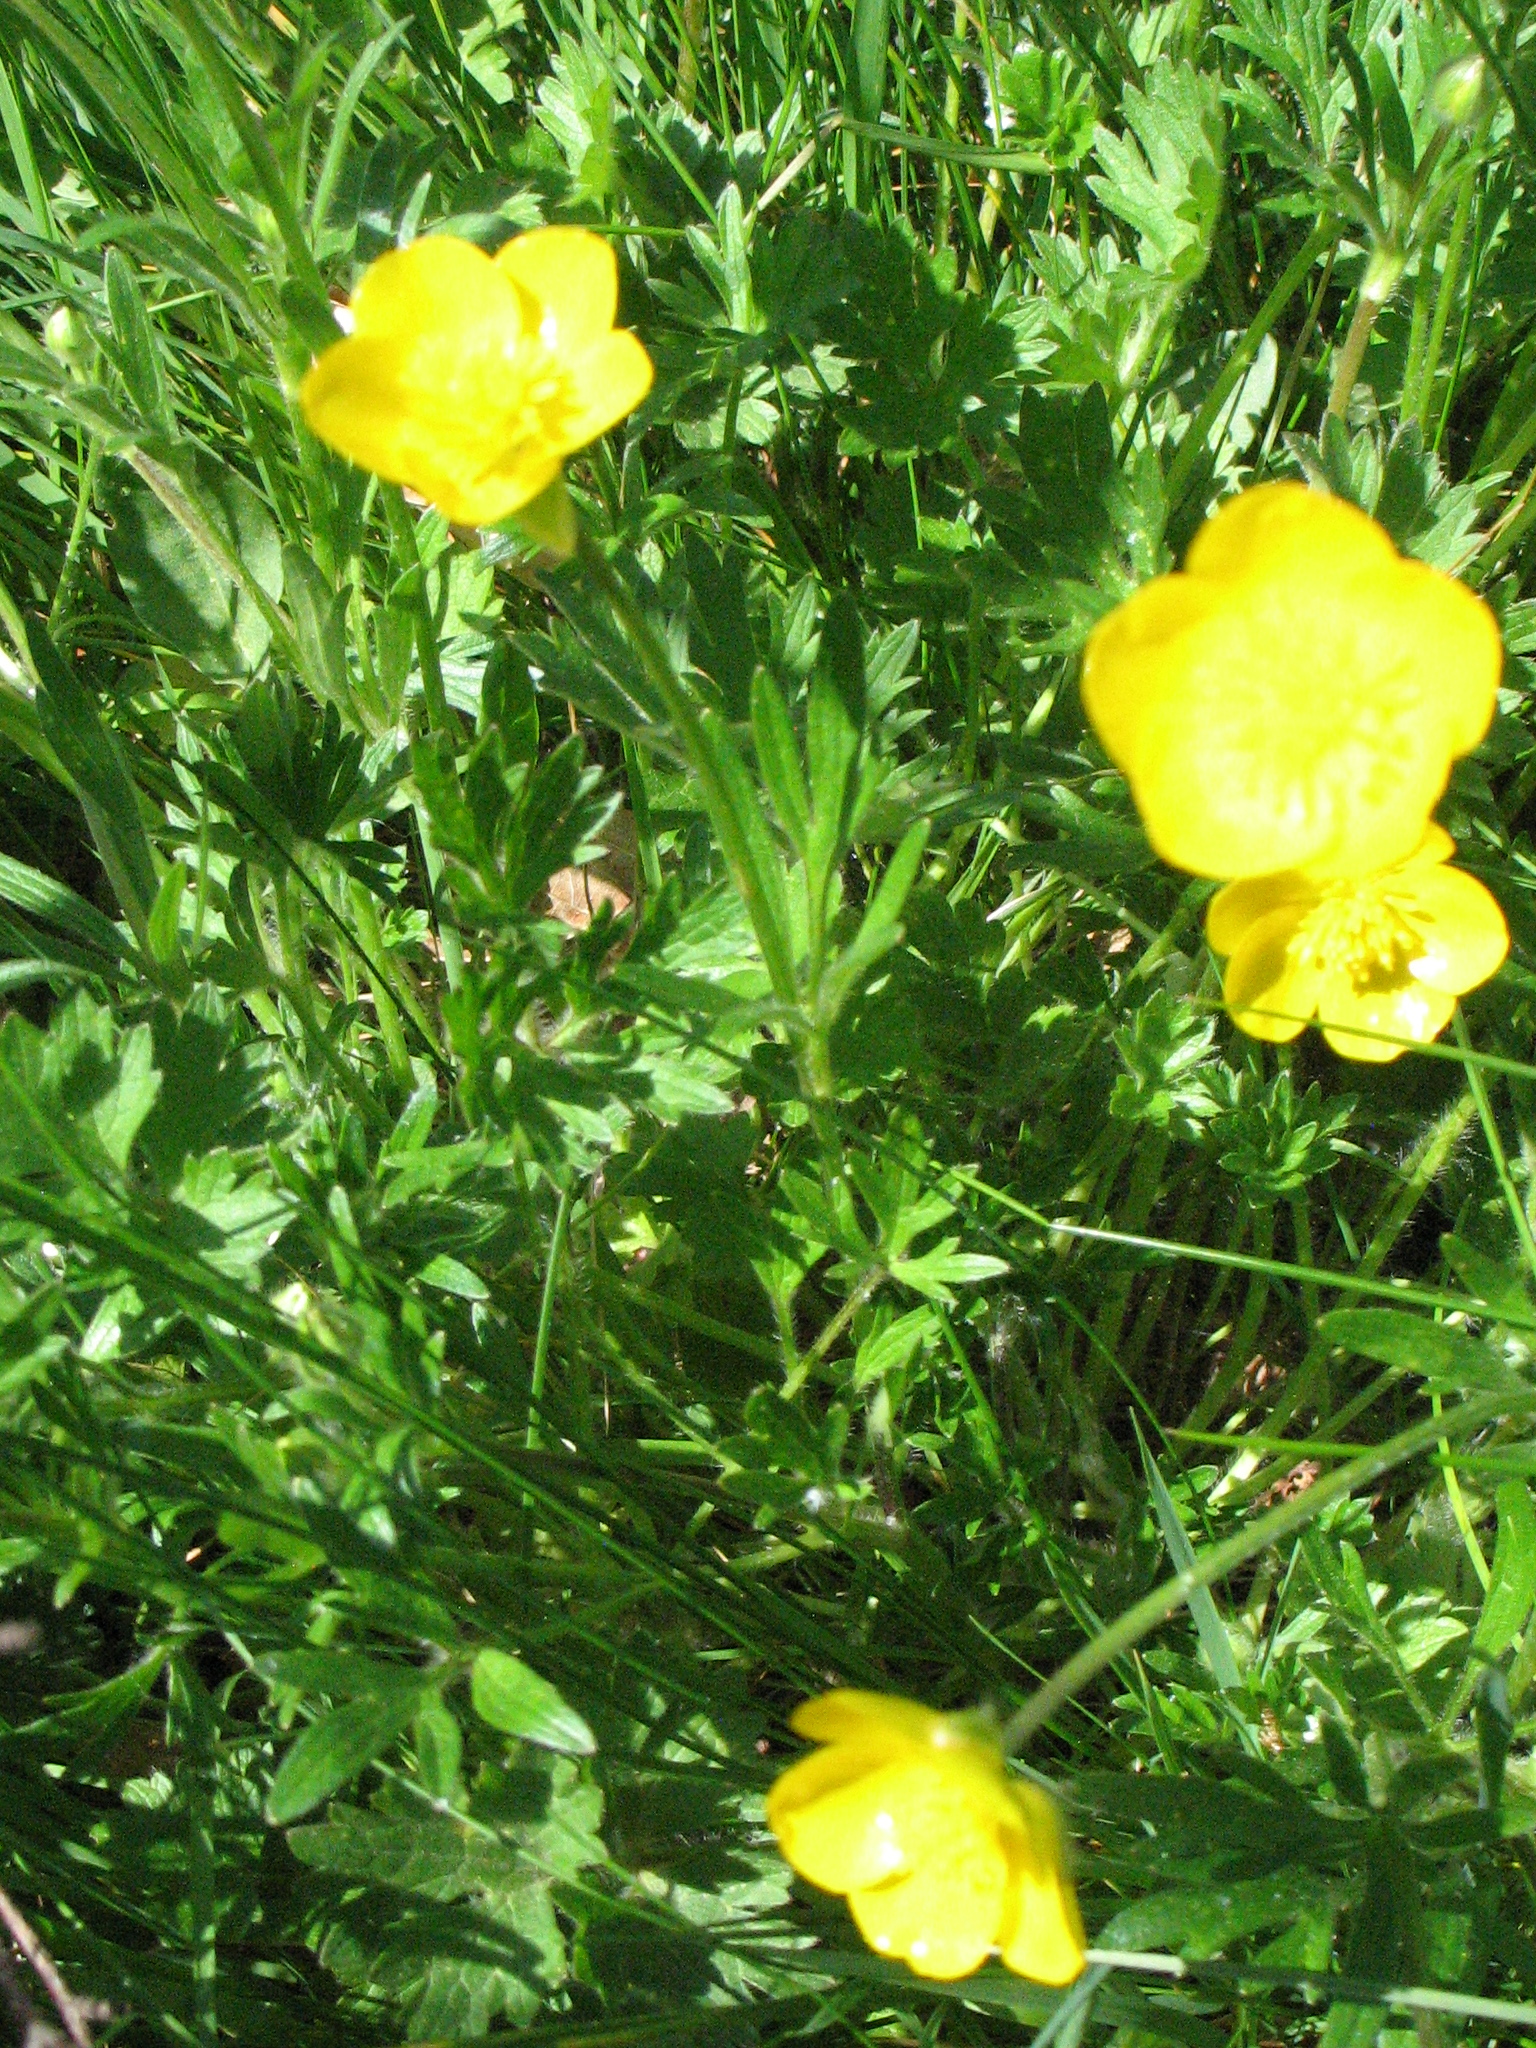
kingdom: Plantae
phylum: Tracheophyta
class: Magnoliopsida
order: Ranunculales
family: Ranunculaceae
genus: Ranunculus
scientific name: Ranunculus bulbosus
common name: Bulbous buttercup
